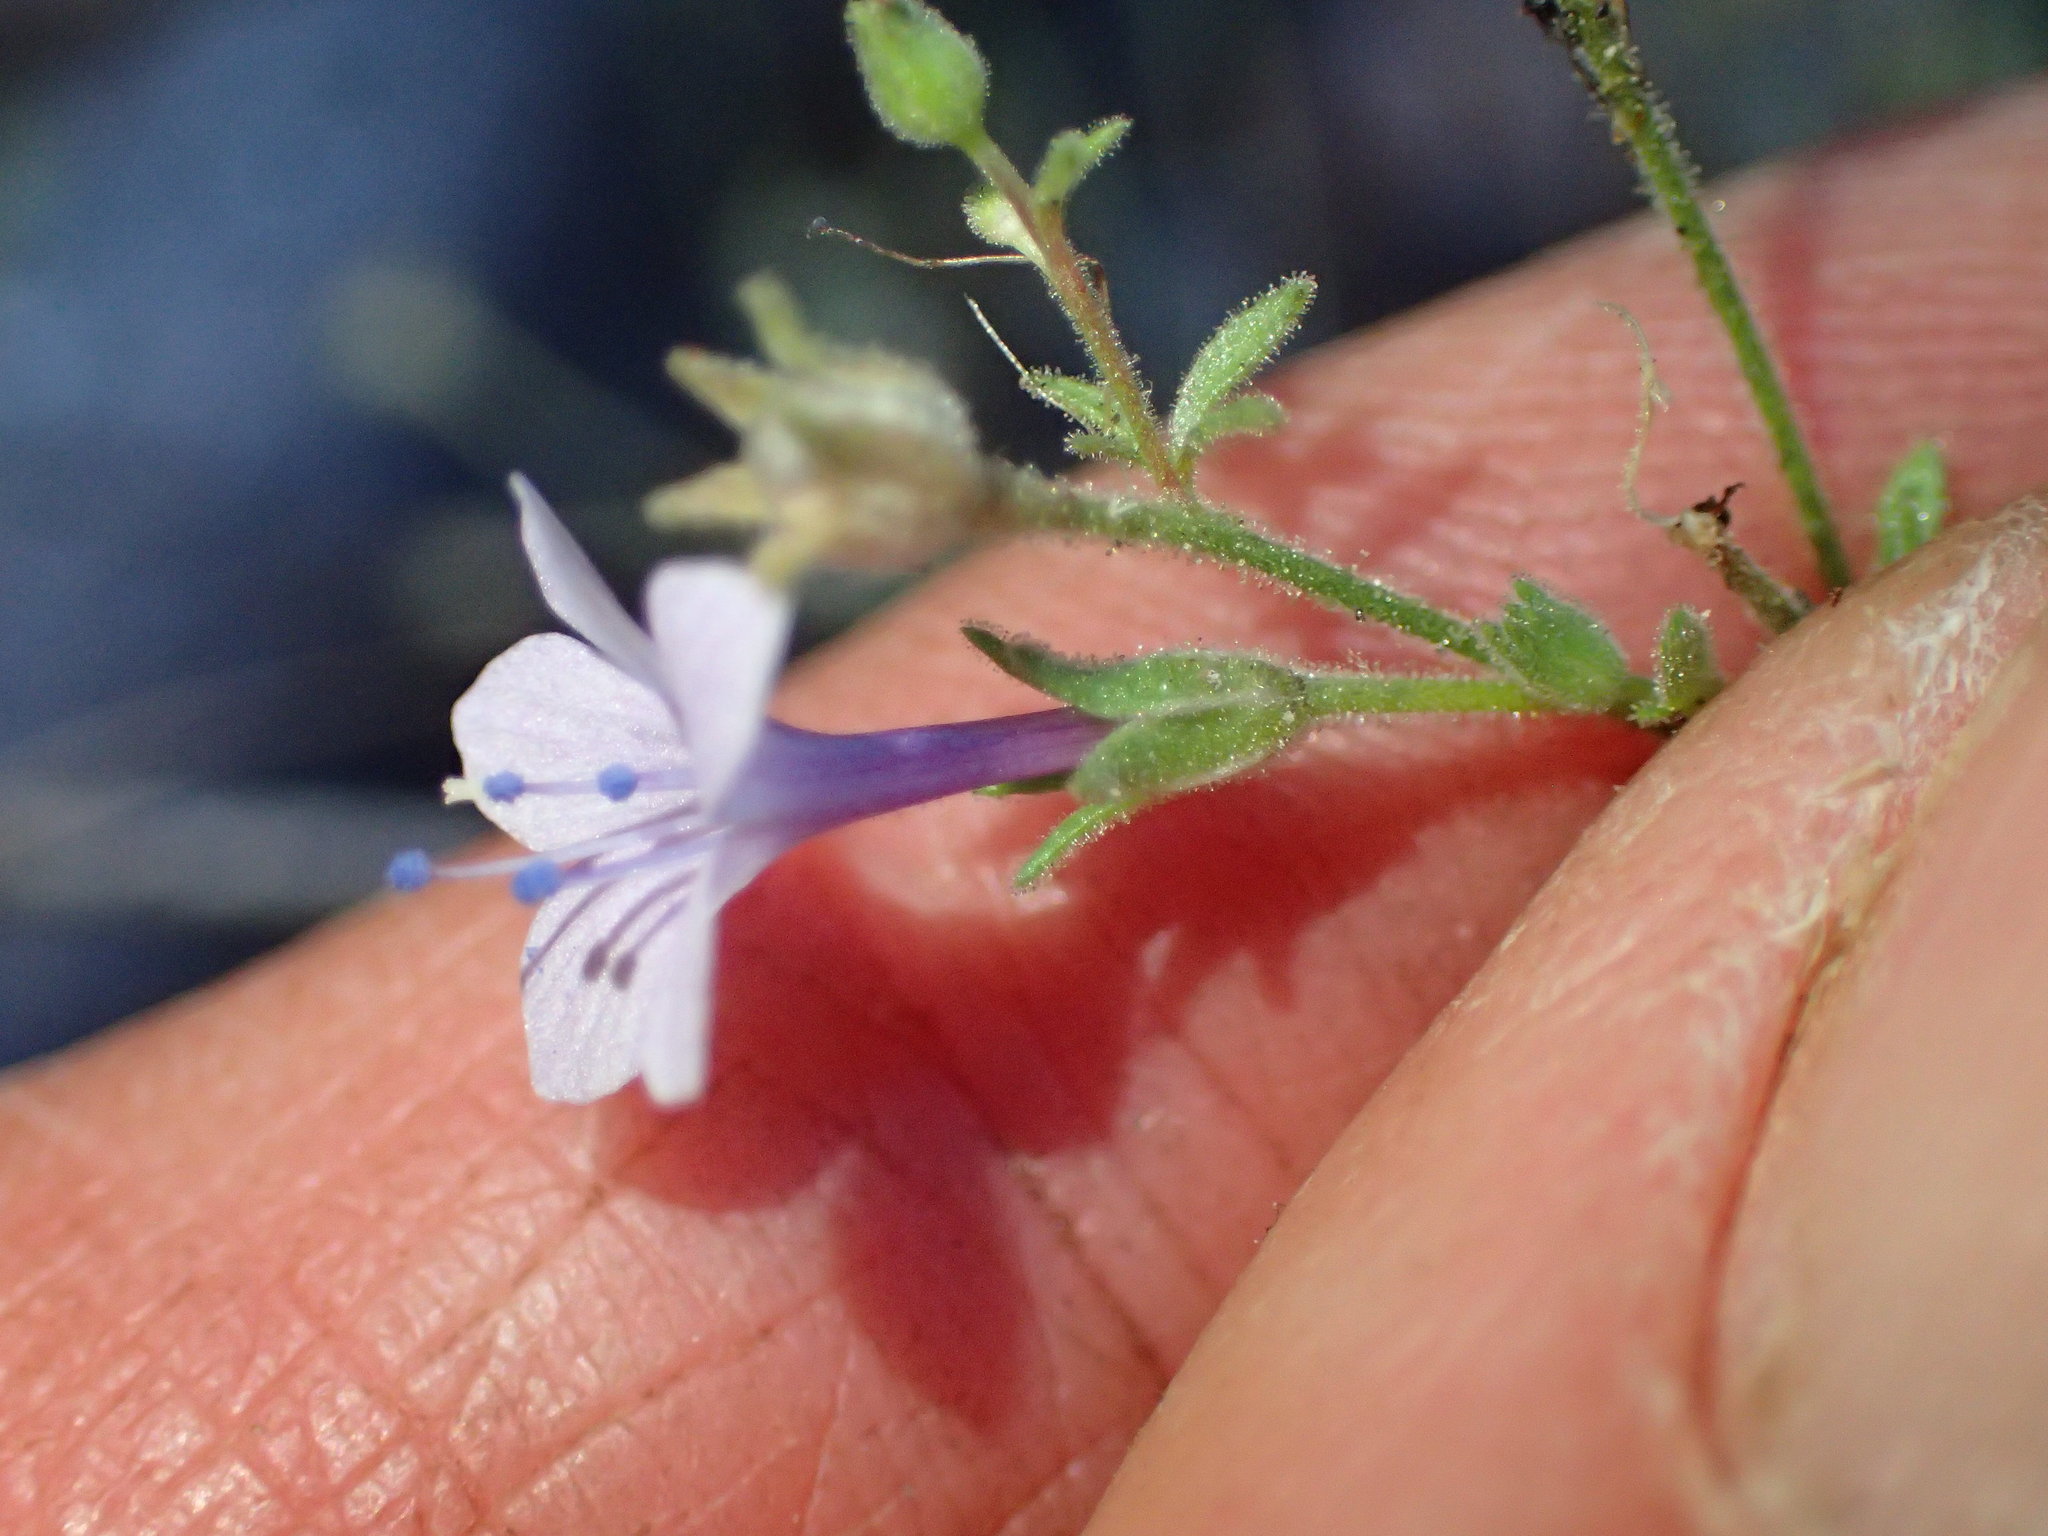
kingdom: Plantae
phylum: Tracheophyta
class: Magnoliopsida
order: Ericales
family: Polemoniaceae
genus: Allophyllum
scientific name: Allophyllum glutinosum
